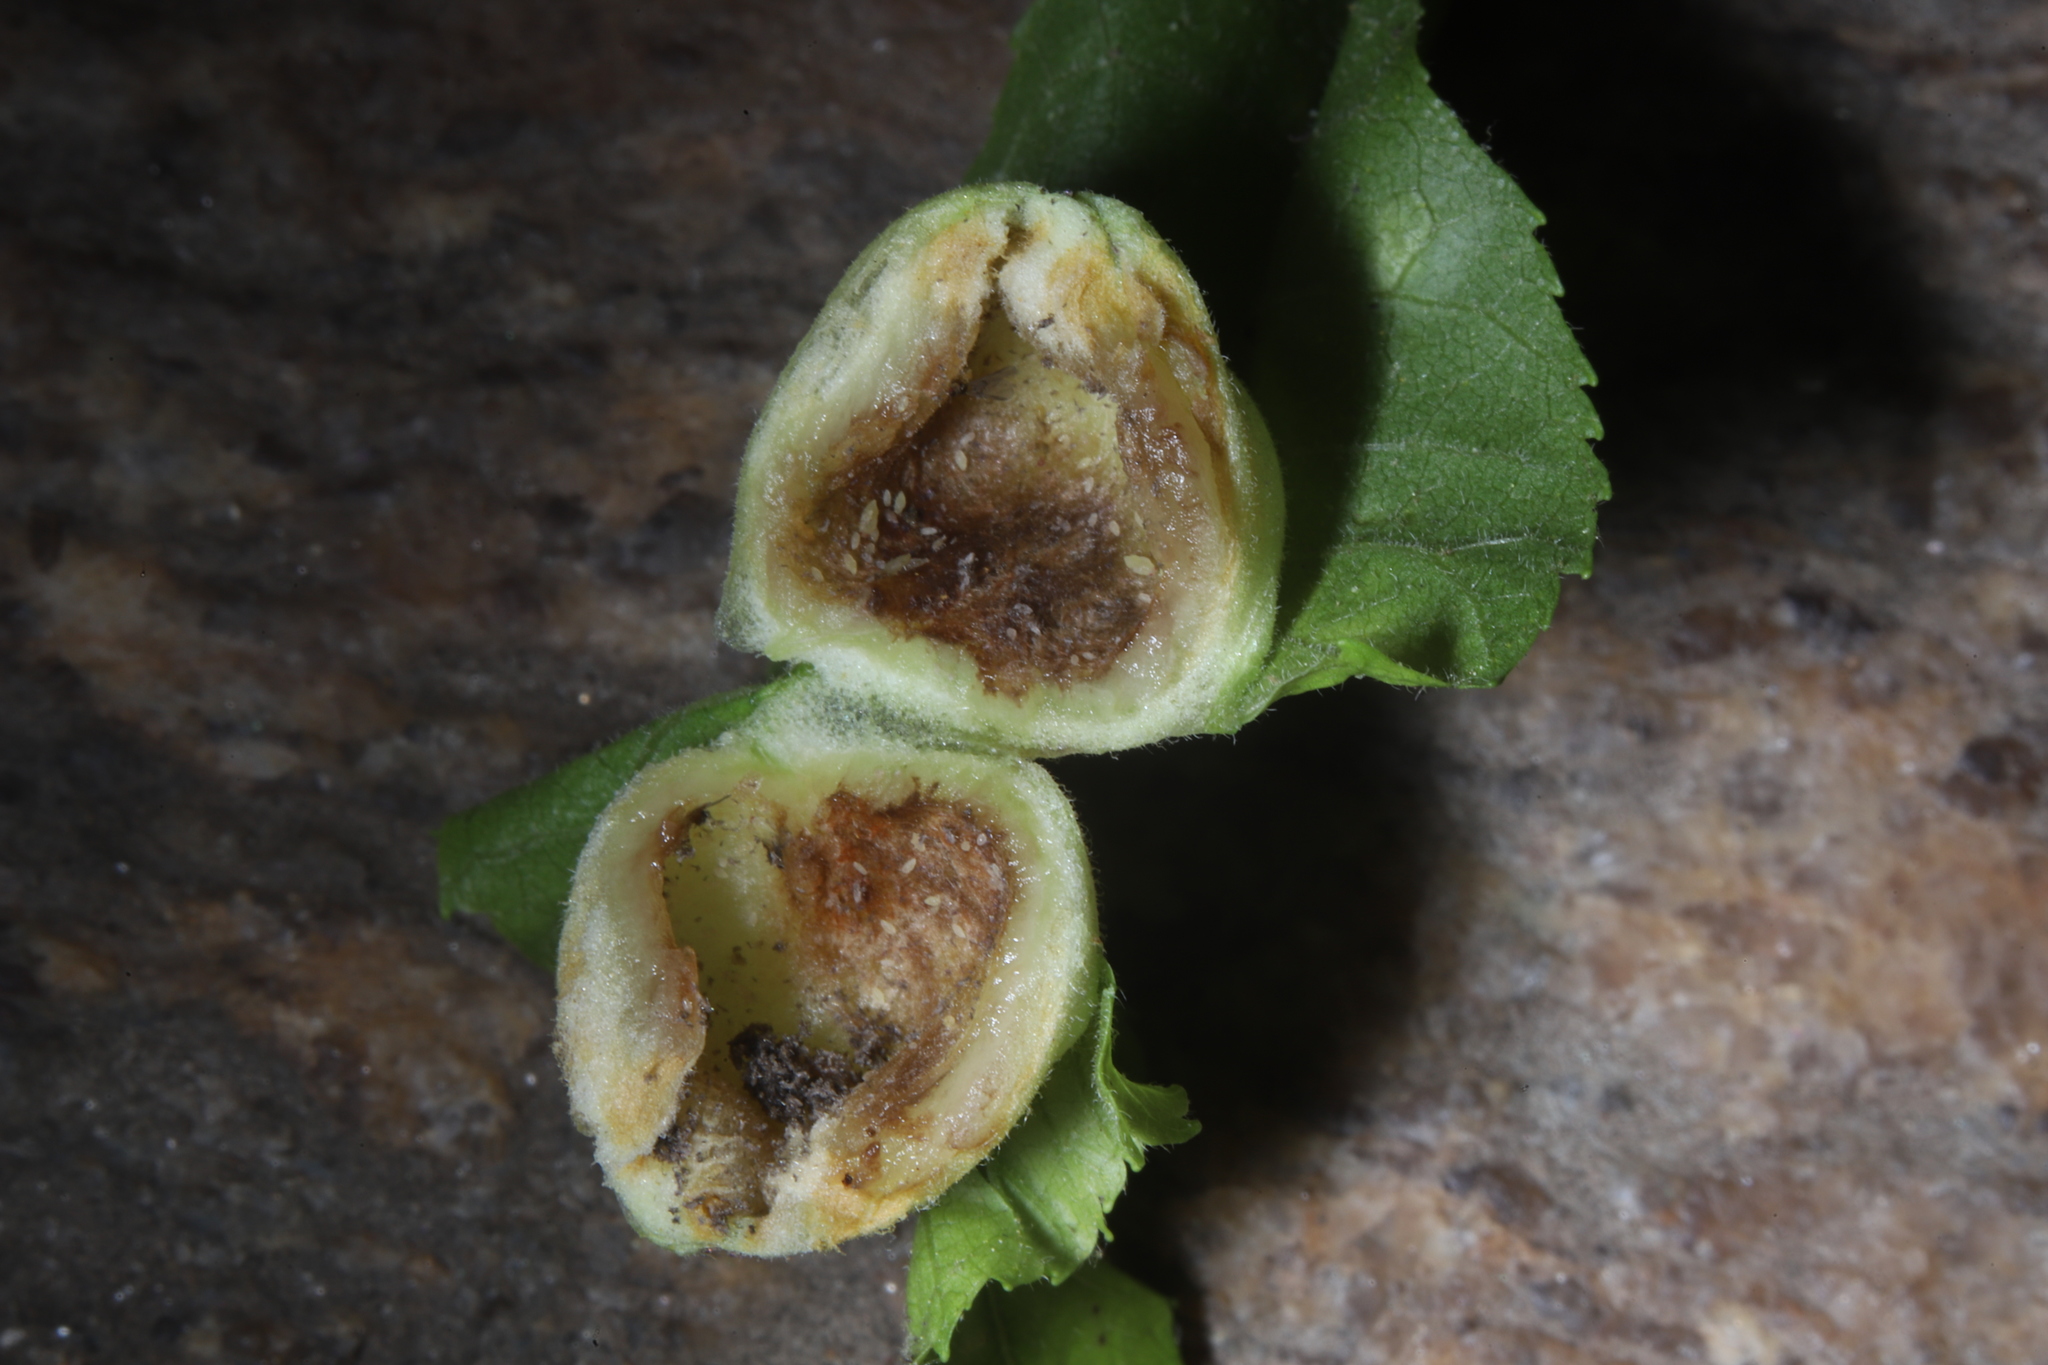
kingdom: Animalia
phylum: Arthropoda
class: Insecta
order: Hemiptera
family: Phylloxeridae
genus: Phylloxera
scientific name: Phylloxera
